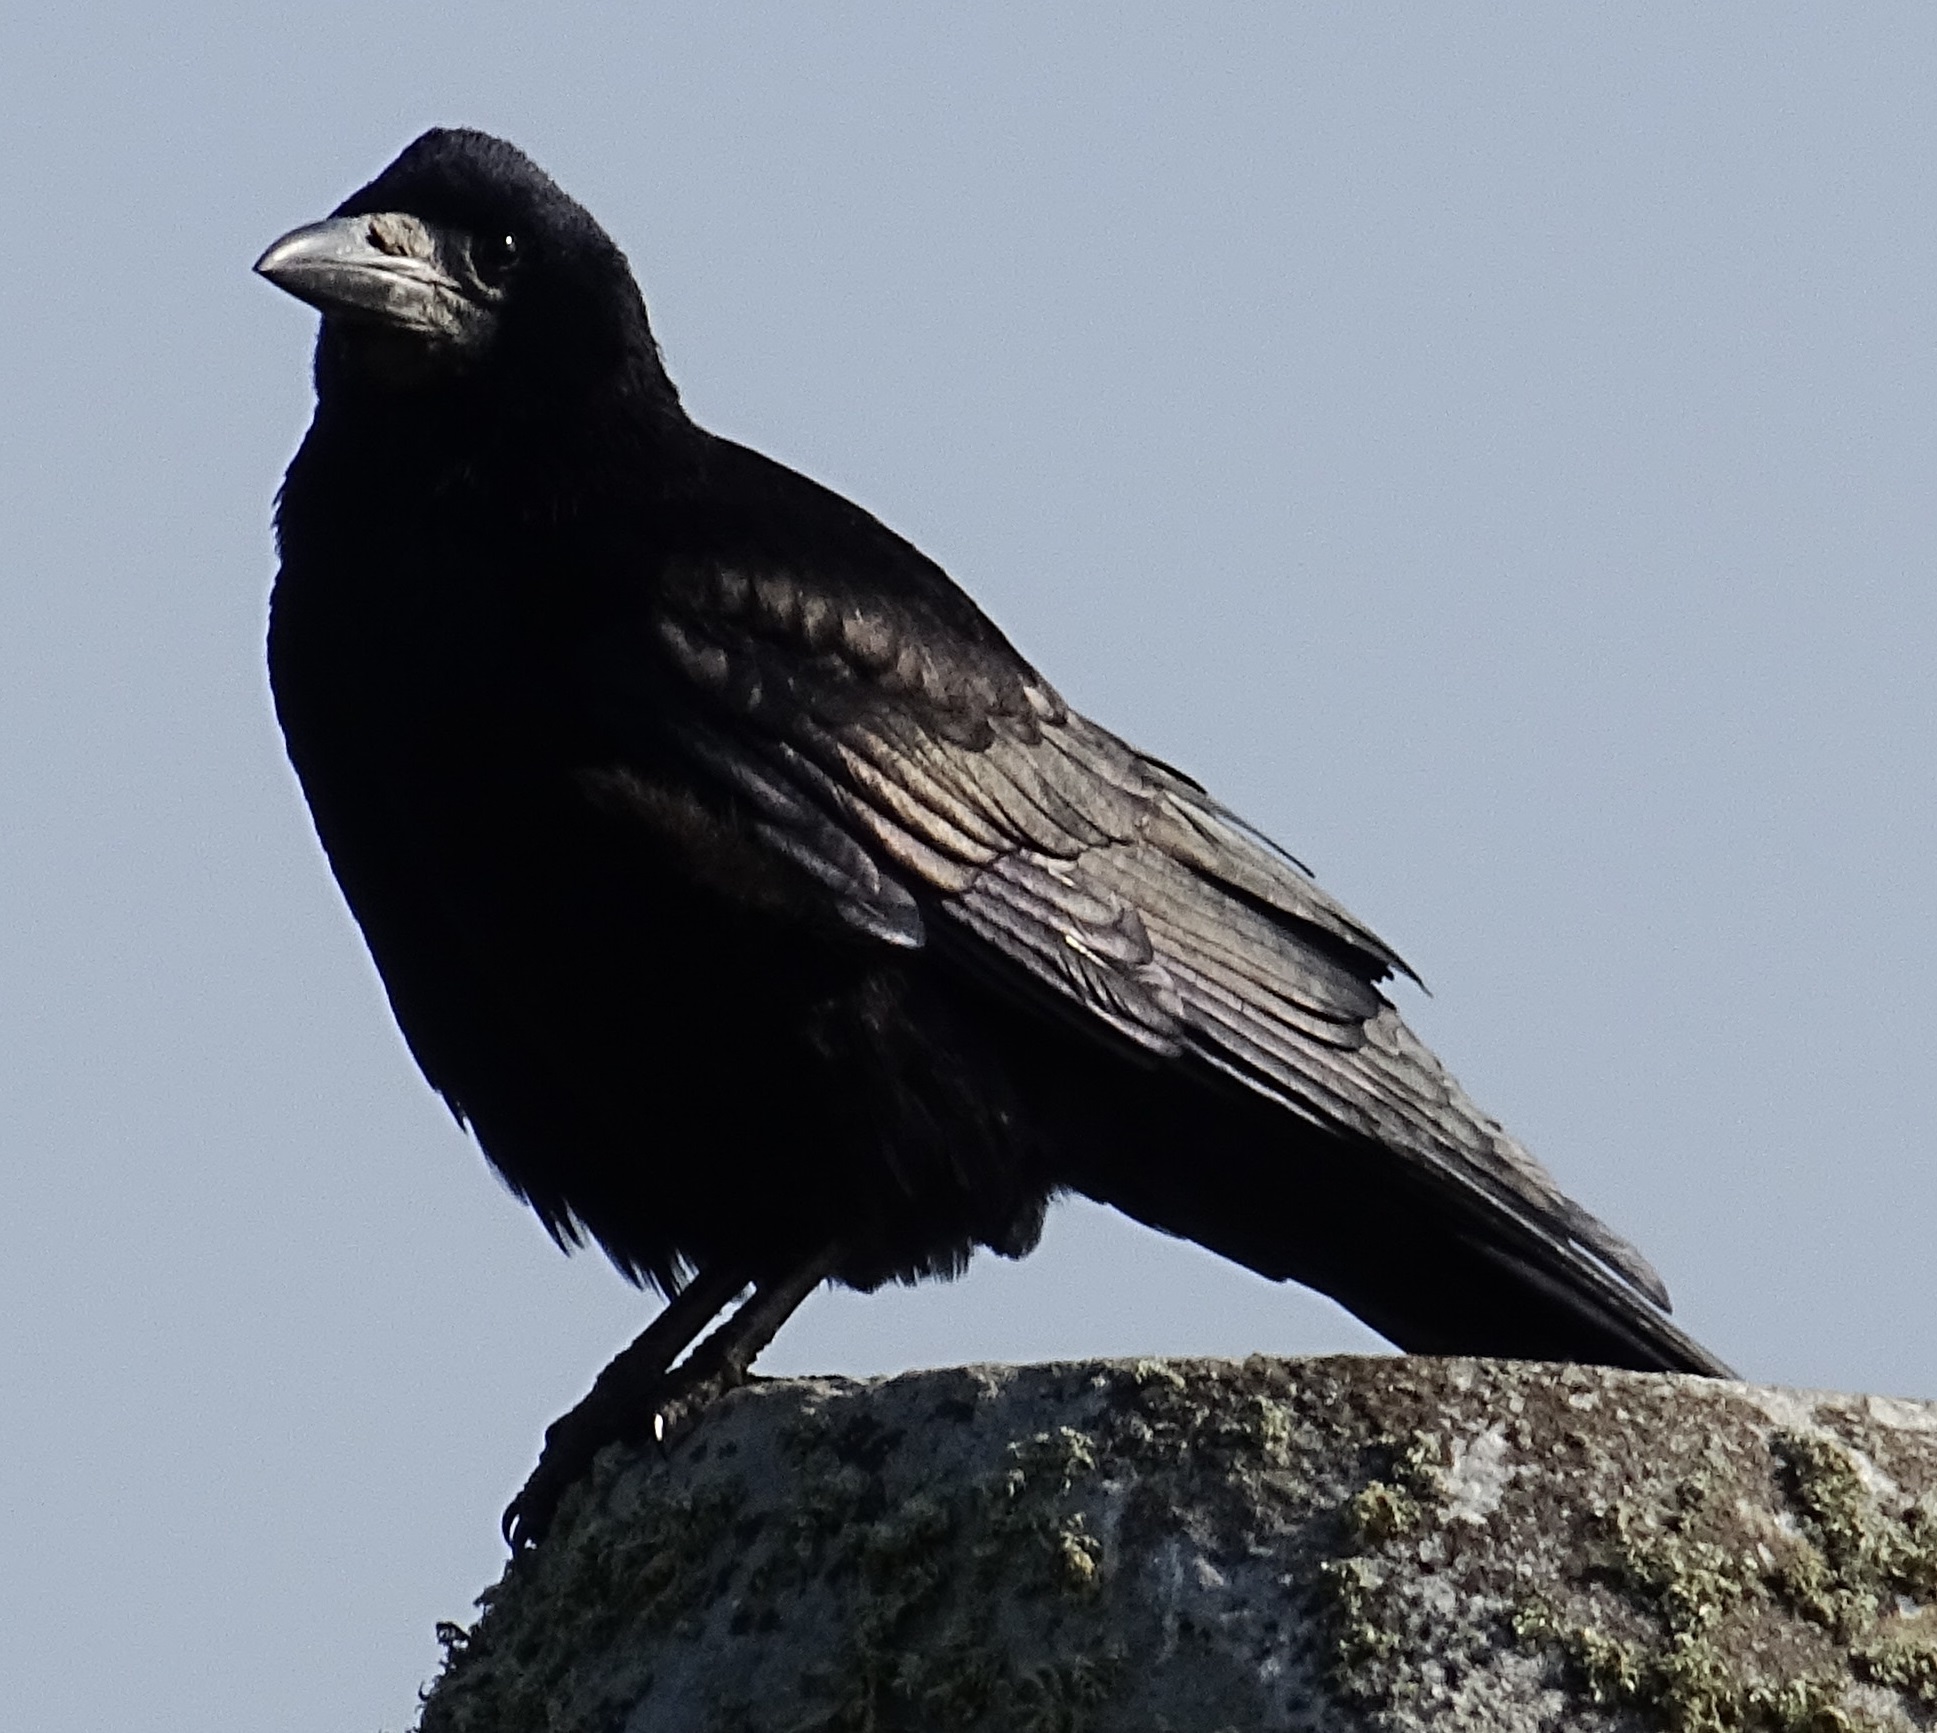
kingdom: Animalia
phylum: Chordata
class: Aves
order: Passeriformes
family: Corvidae
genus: Corvus
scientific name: Corvus frugilegus
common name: Rook
